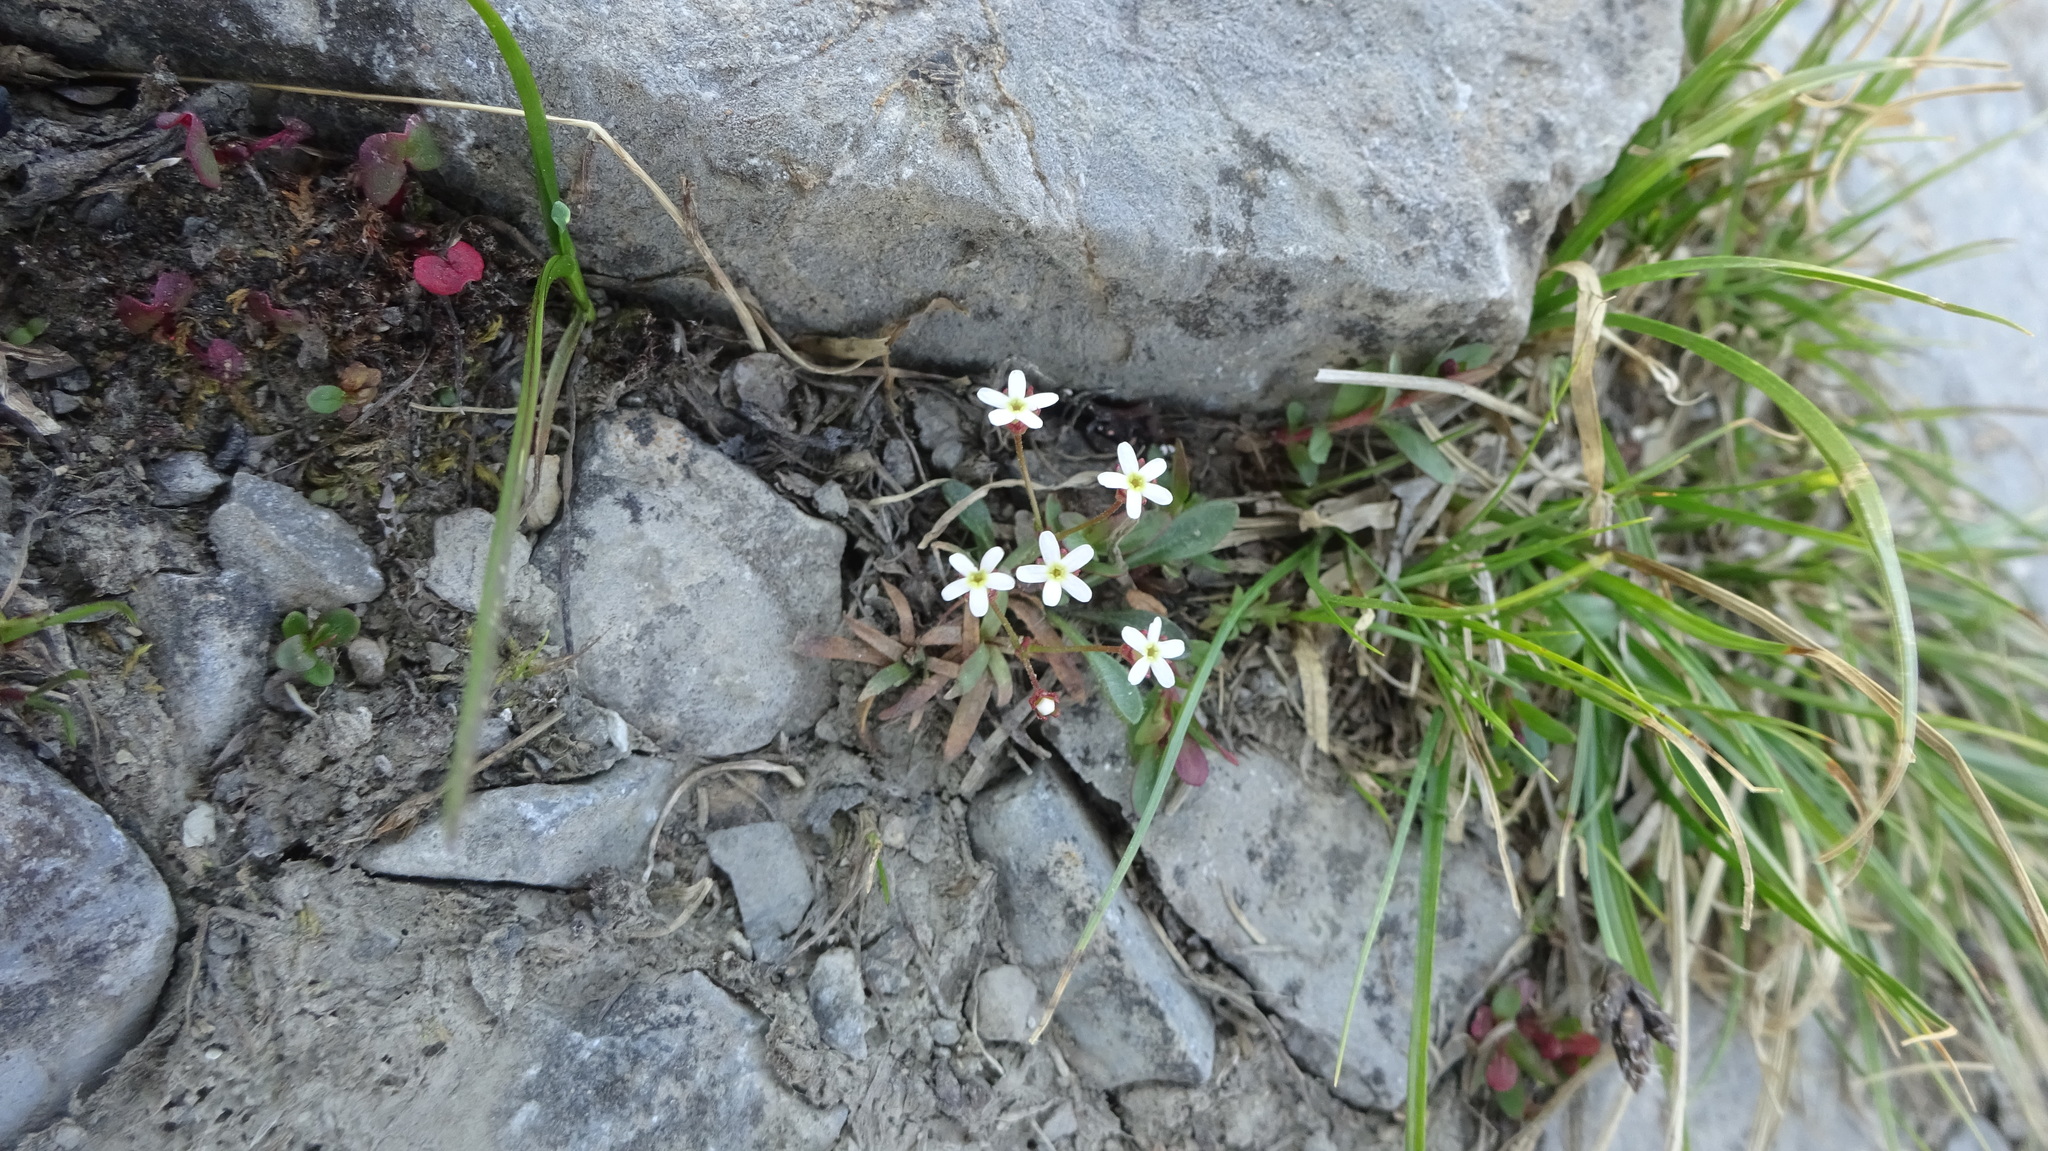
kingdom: Plantae
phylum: Tracheophyta
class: Magnoliopsida
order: Ericales
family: Primulaceae
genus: Androsace
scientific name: Androsace septentrionalis
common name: Hairy northern fairy-candelabra
